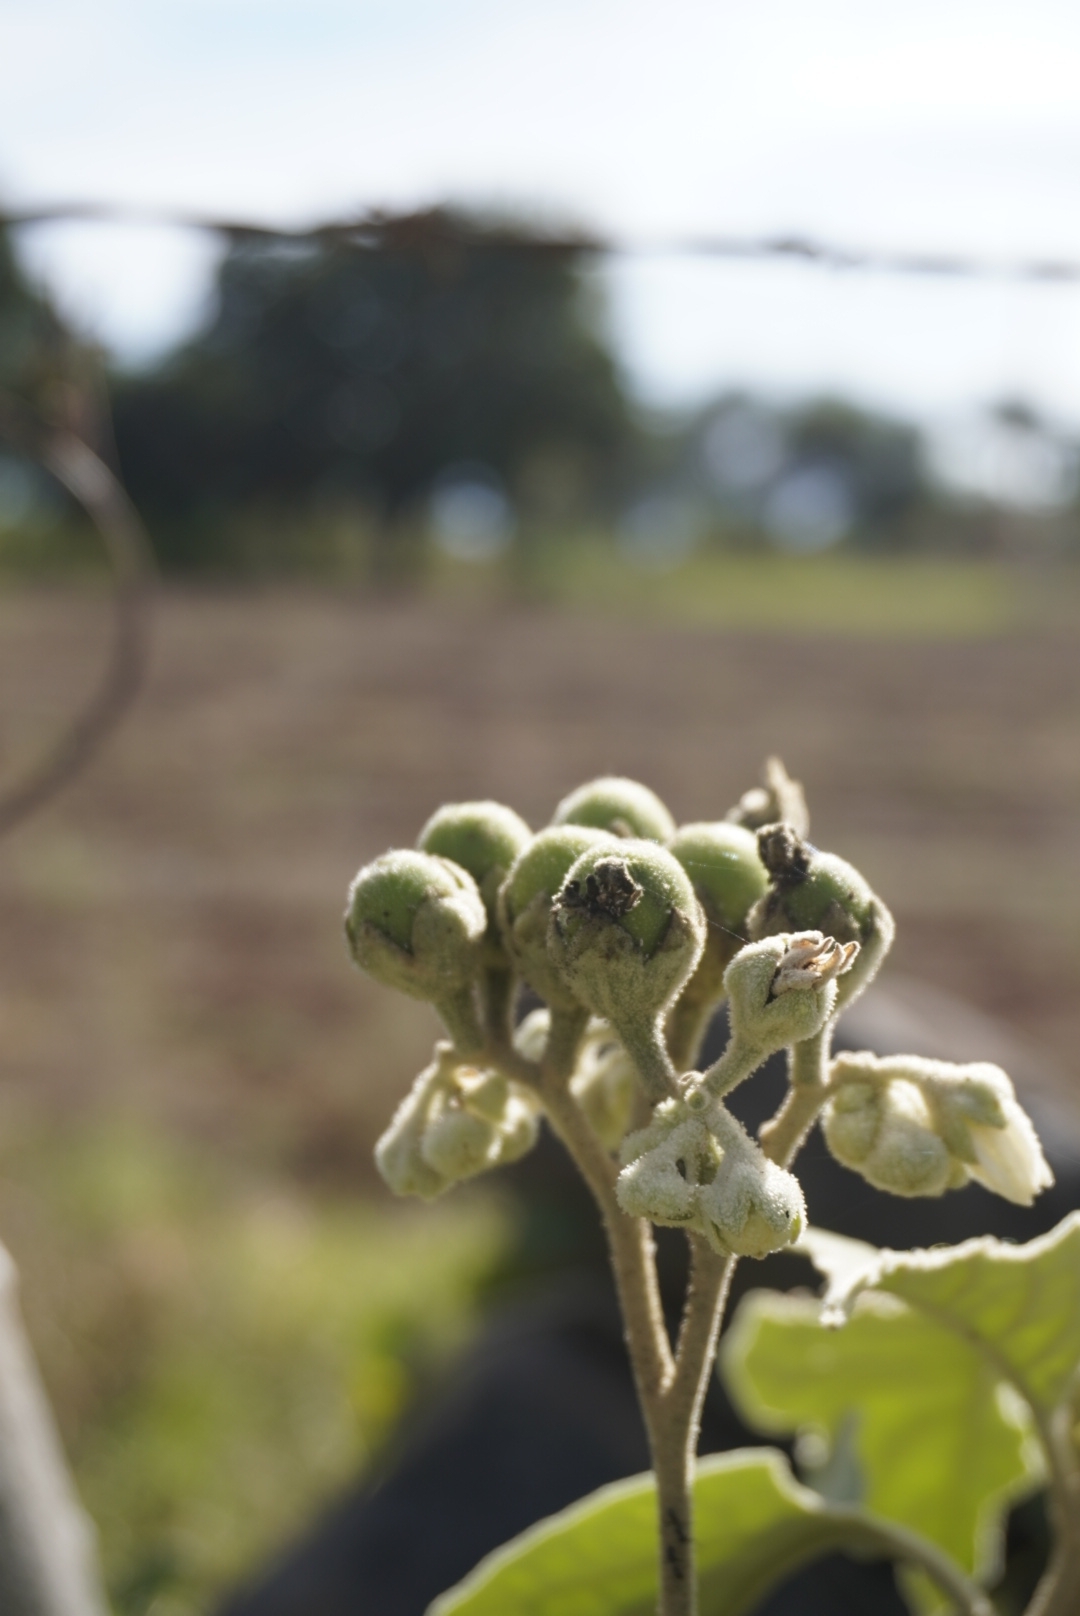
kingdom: Plantae
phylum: Tracheophyta
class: Magnoliopsida
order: Solanales
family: Solanaceae
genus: Solanum
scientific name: Solanum erianthum
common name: Tobacco-tree
